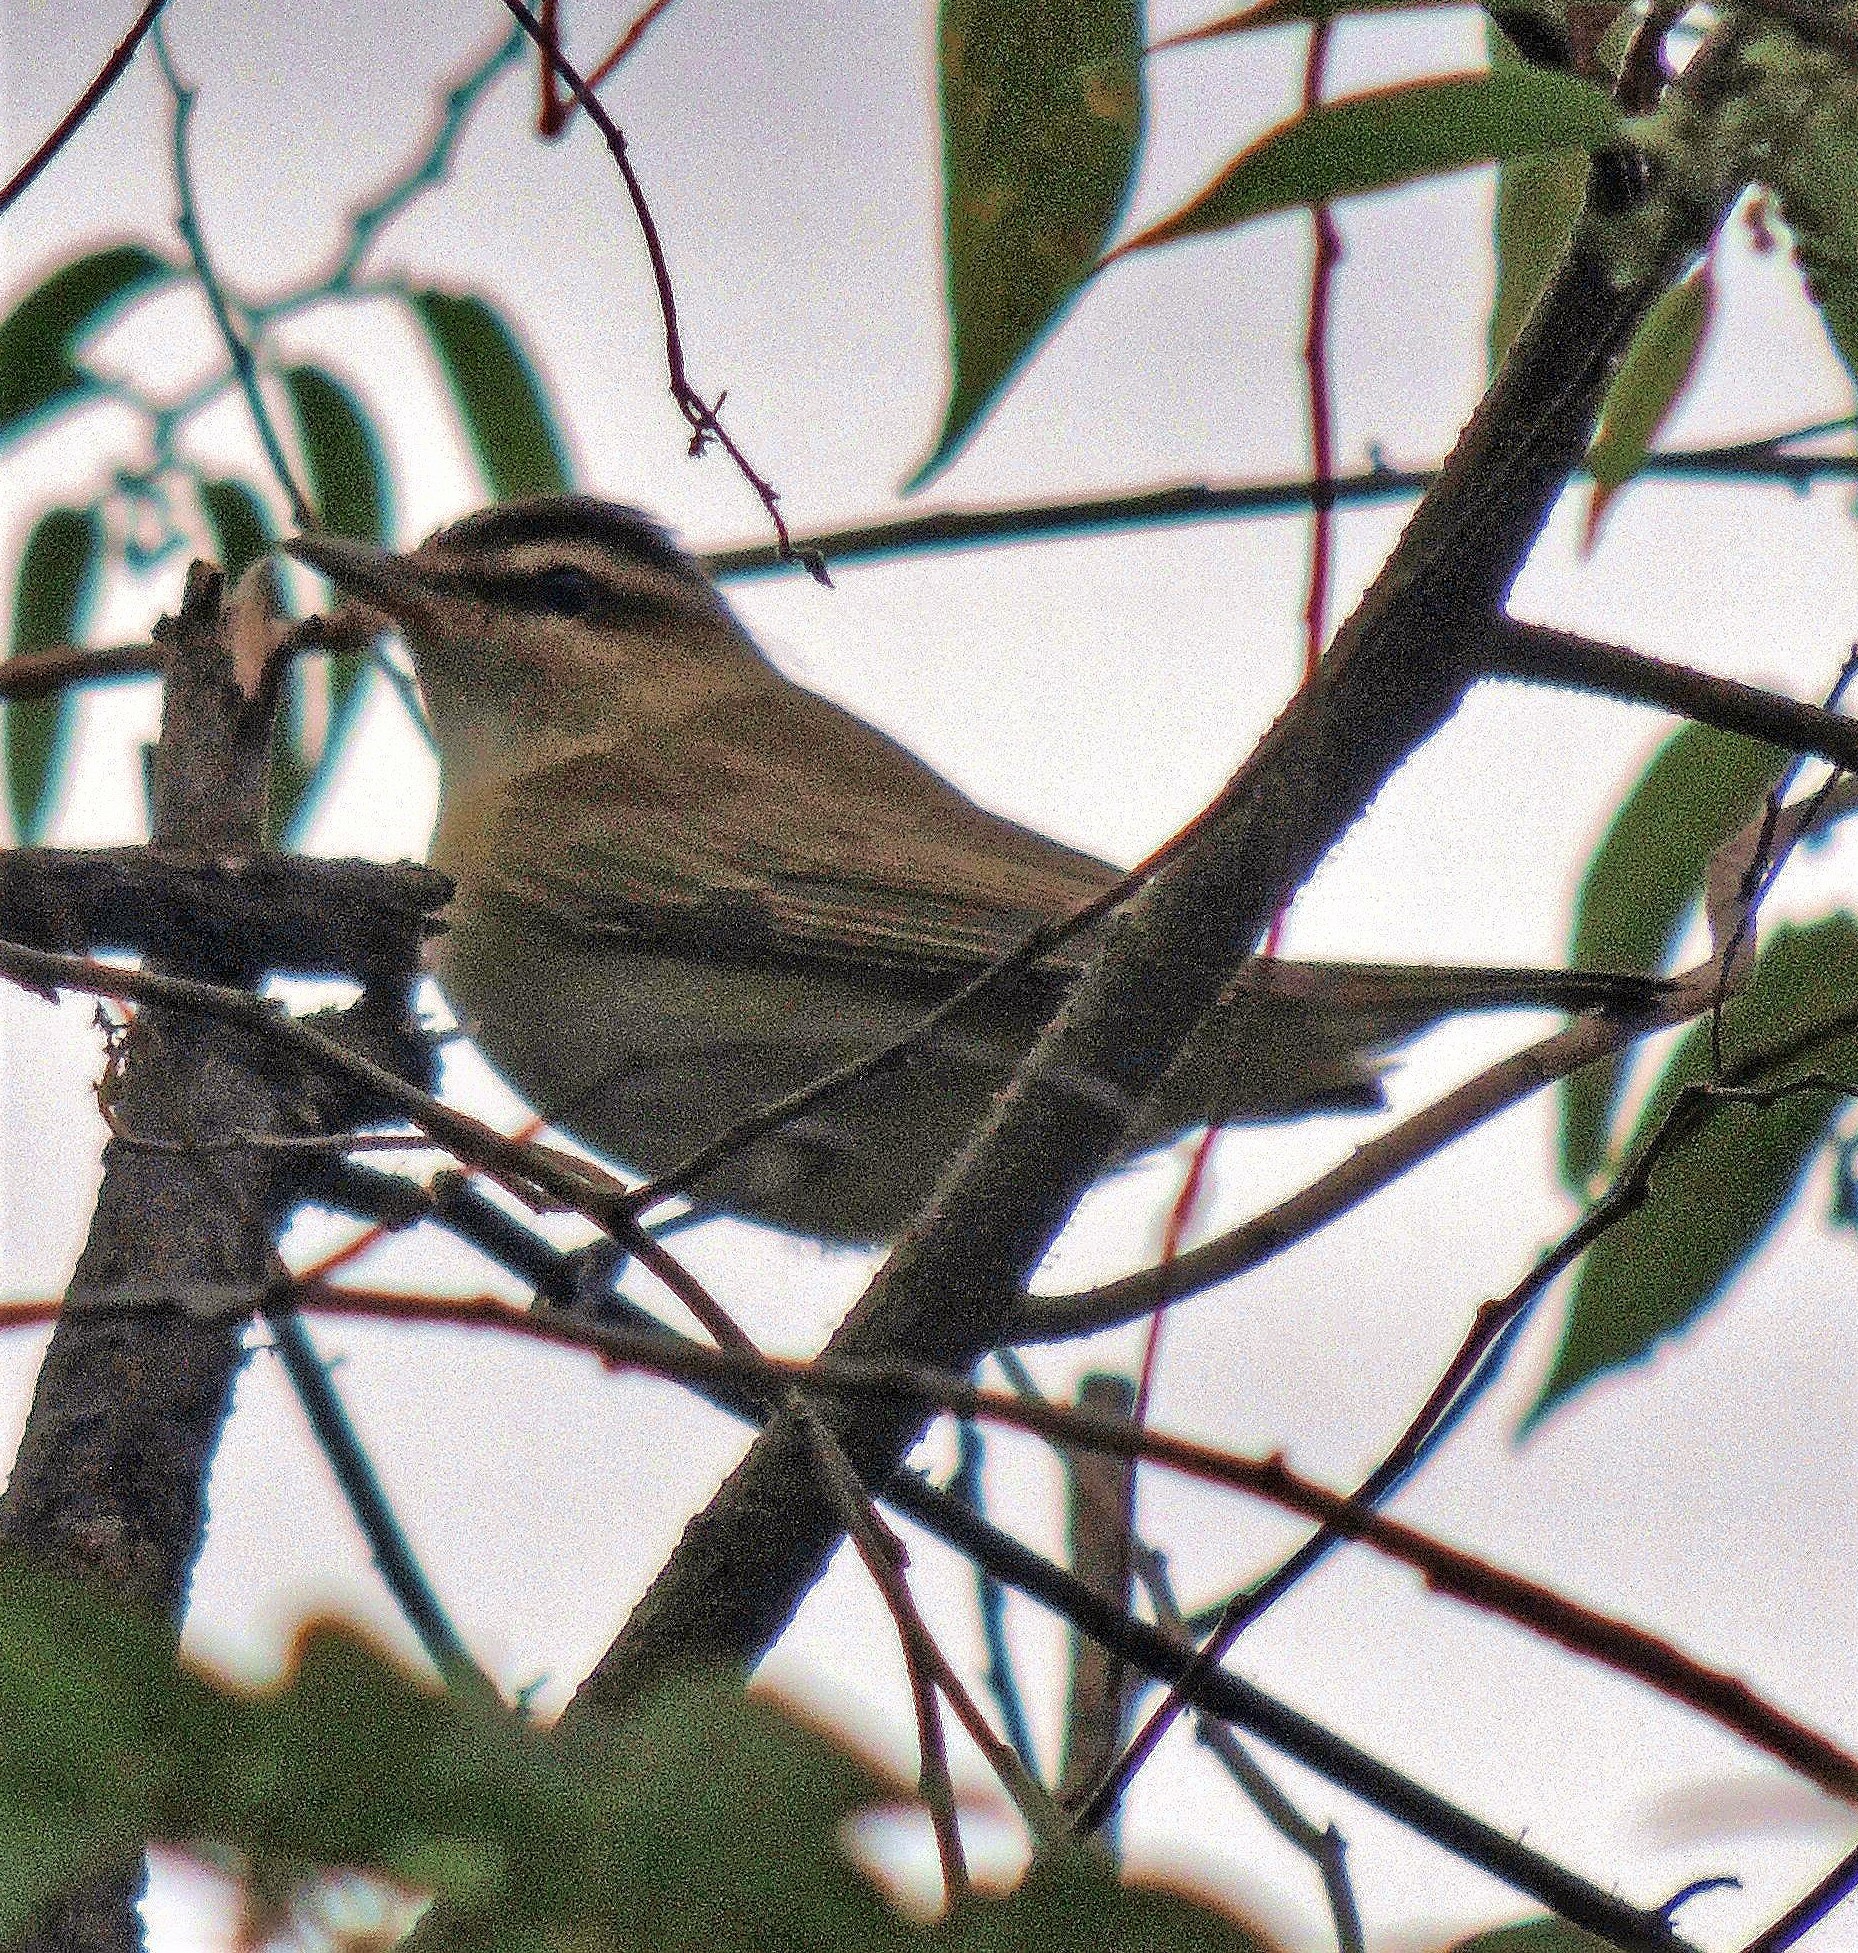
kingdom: Animalia
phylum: Chordata
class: Aves
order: Passeriformes
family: Vireonidae
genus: Vireo
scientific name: Vireo olivaceus
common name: Red-eyed vireo
